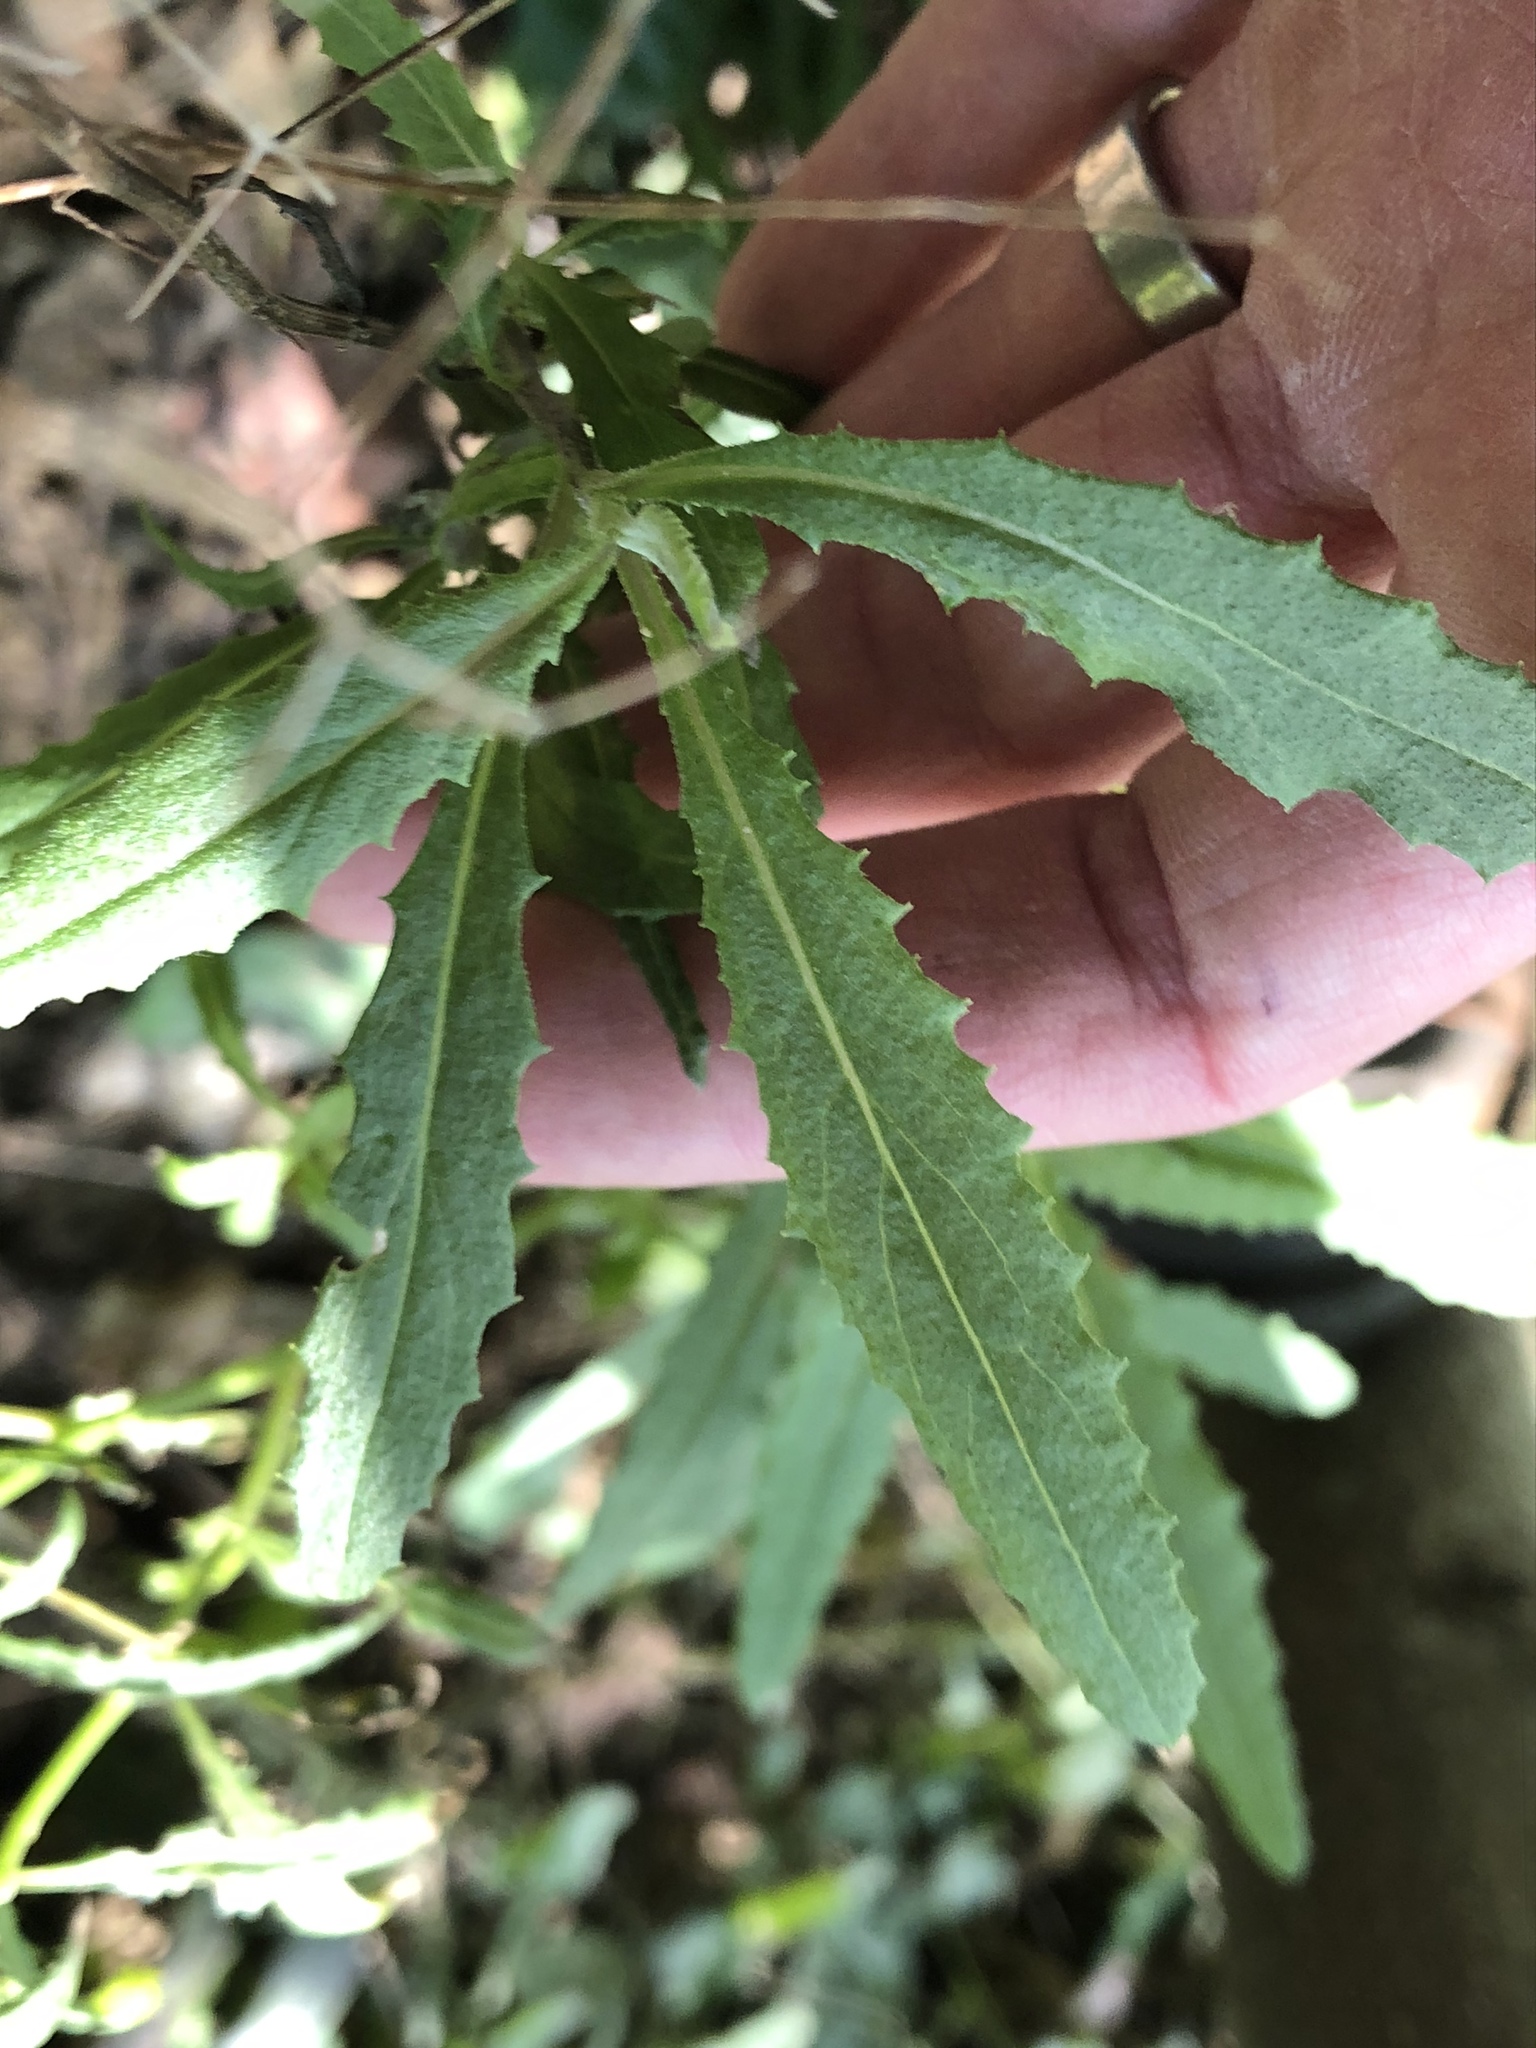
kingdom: Plantae
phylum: Tracheophyta
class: Magnoliopsida
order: Asterales
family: Asteraceae
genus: Senecio
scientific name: Senecio minimus
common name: Toothed fireweed
